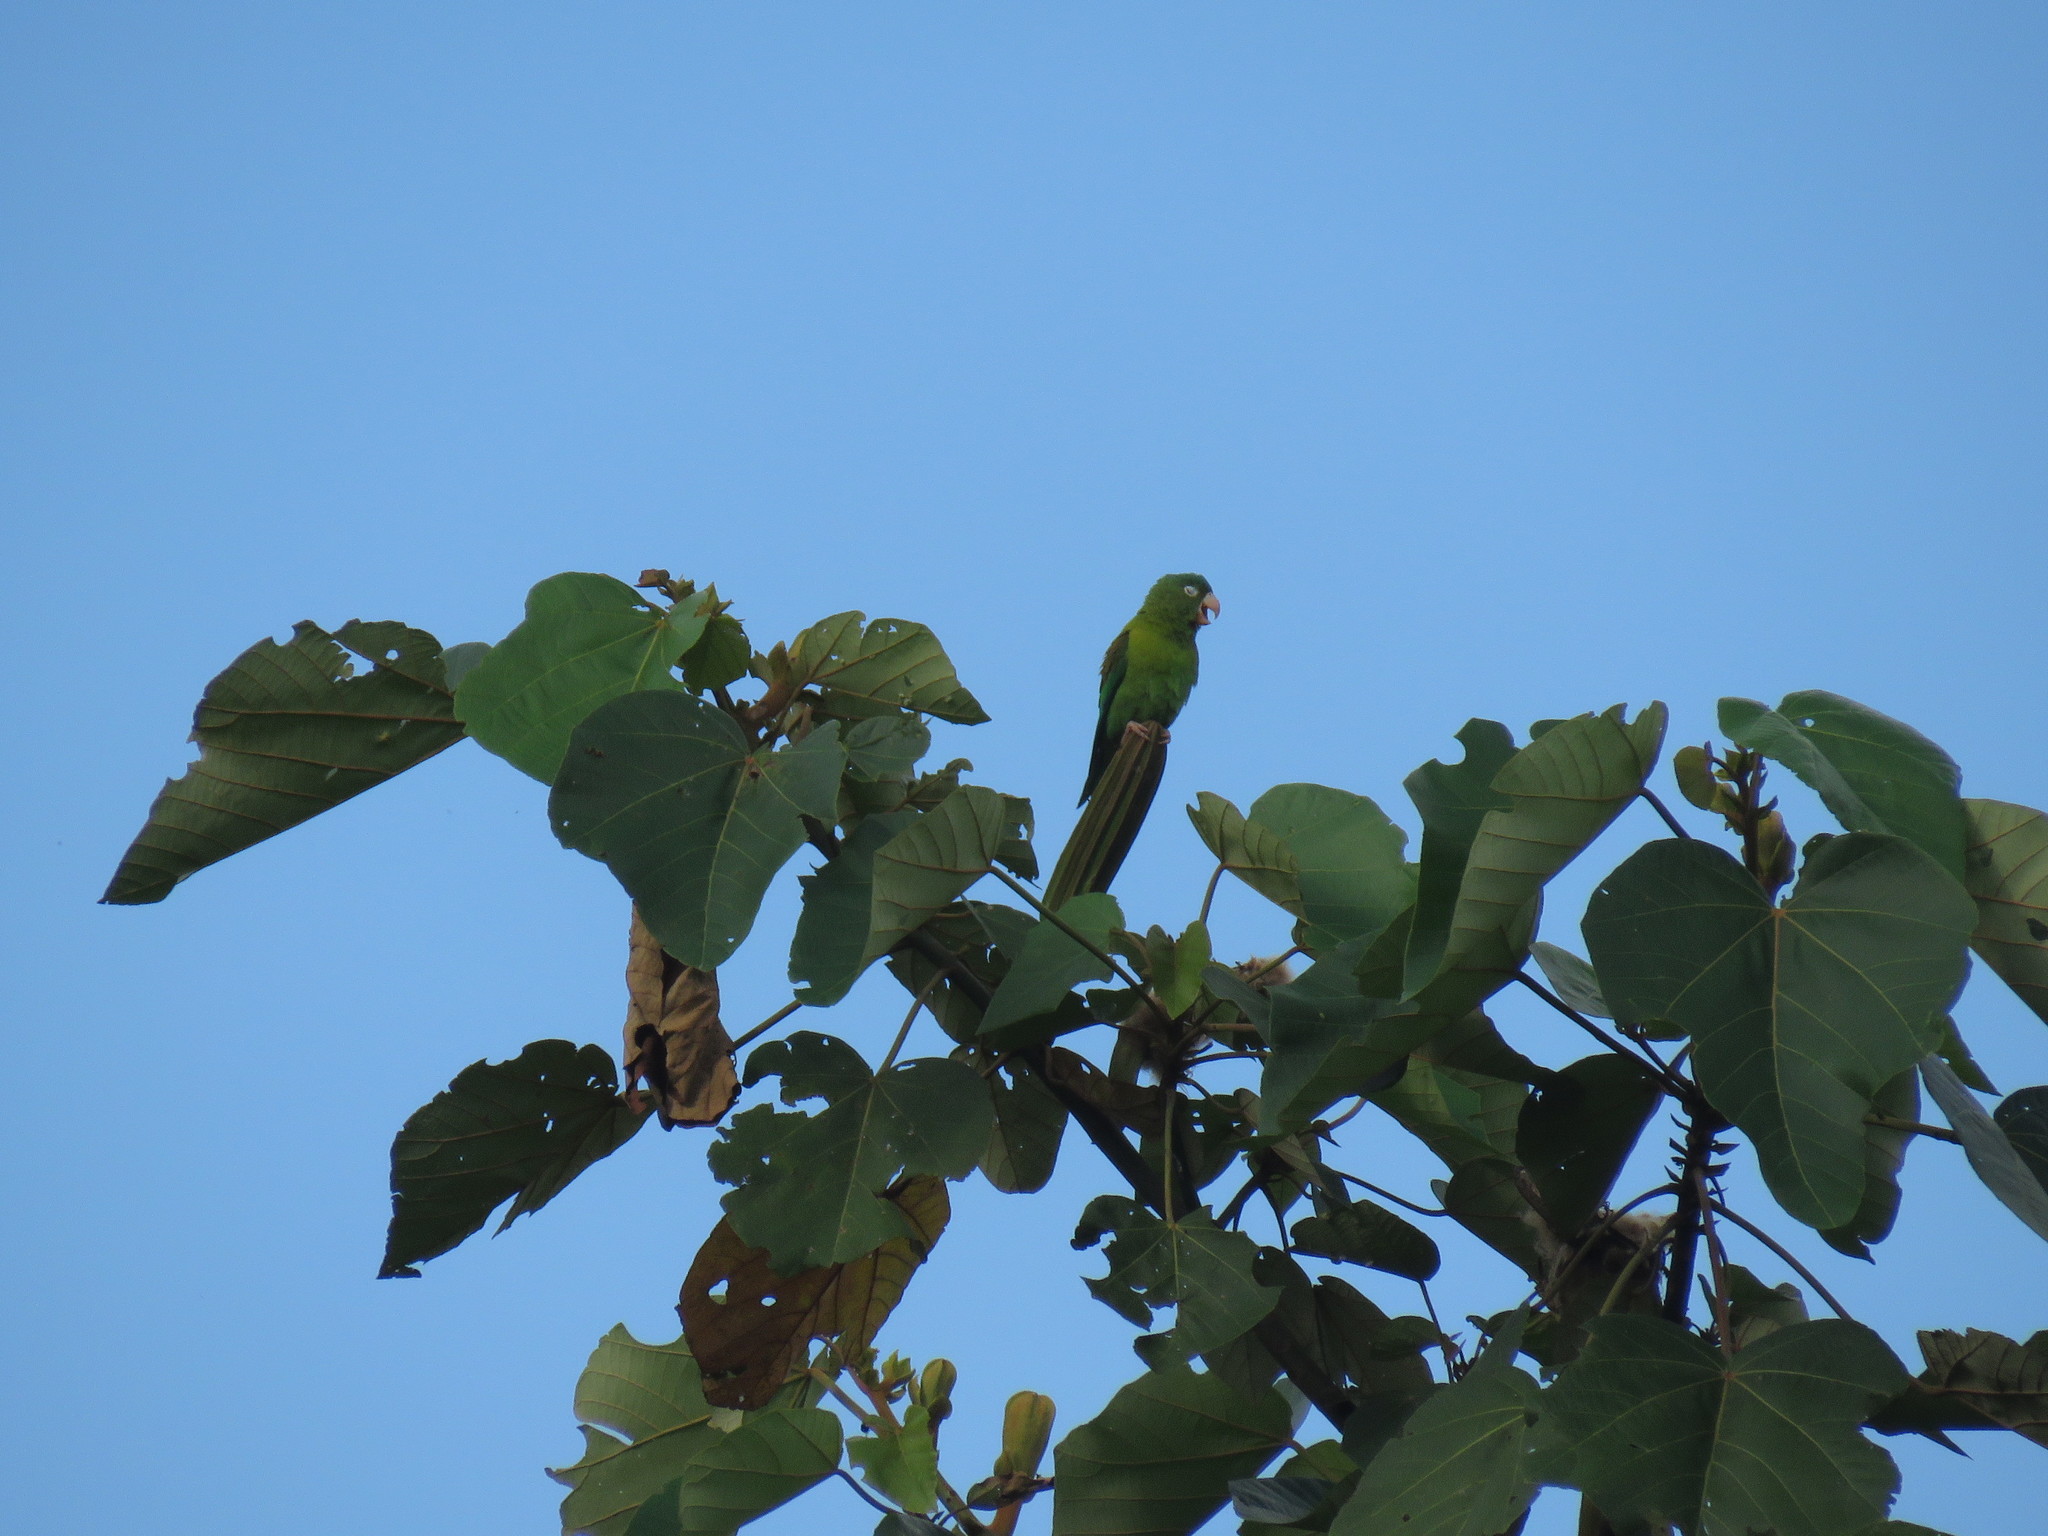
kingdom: Animalia
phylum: Chordata
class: Aves
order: Psittaciformes
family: Psittacidae
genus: Brotogeris
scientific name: Brotogeris jugularis
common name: Orange-chinned parakeet
